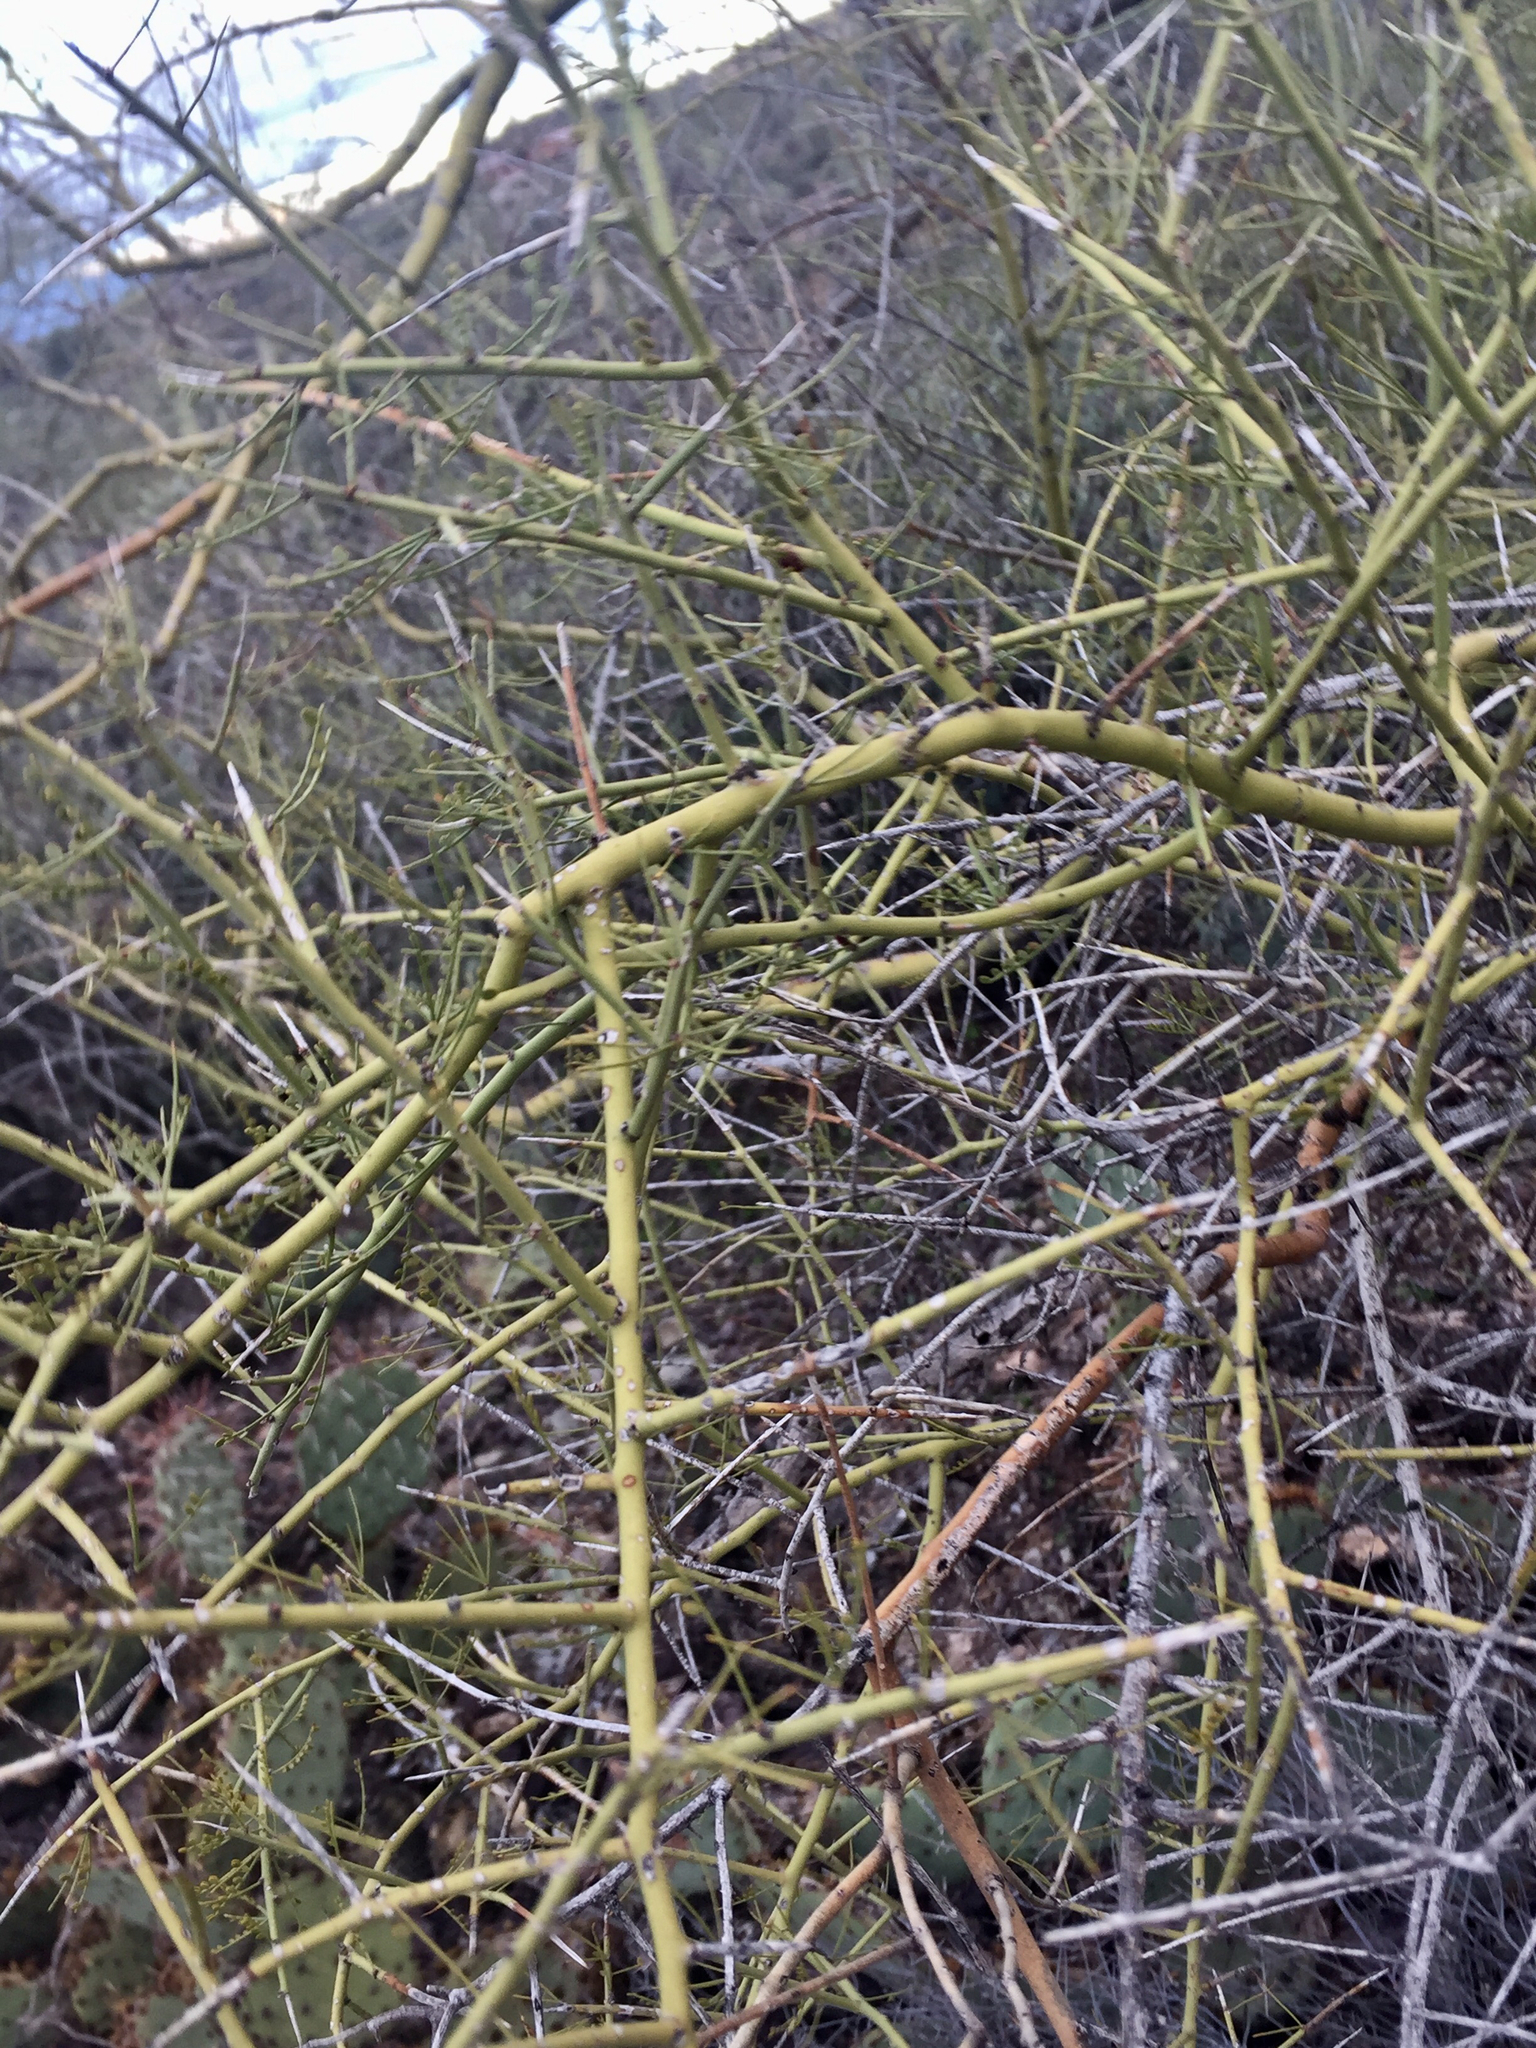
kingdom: Plantae
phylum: Tracheophyta
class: Magnoliopsida
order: Fabales
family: Fabaceae
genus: Parkinsonia
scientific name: Parkinsonia microphylla
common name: Yellow paloverde
